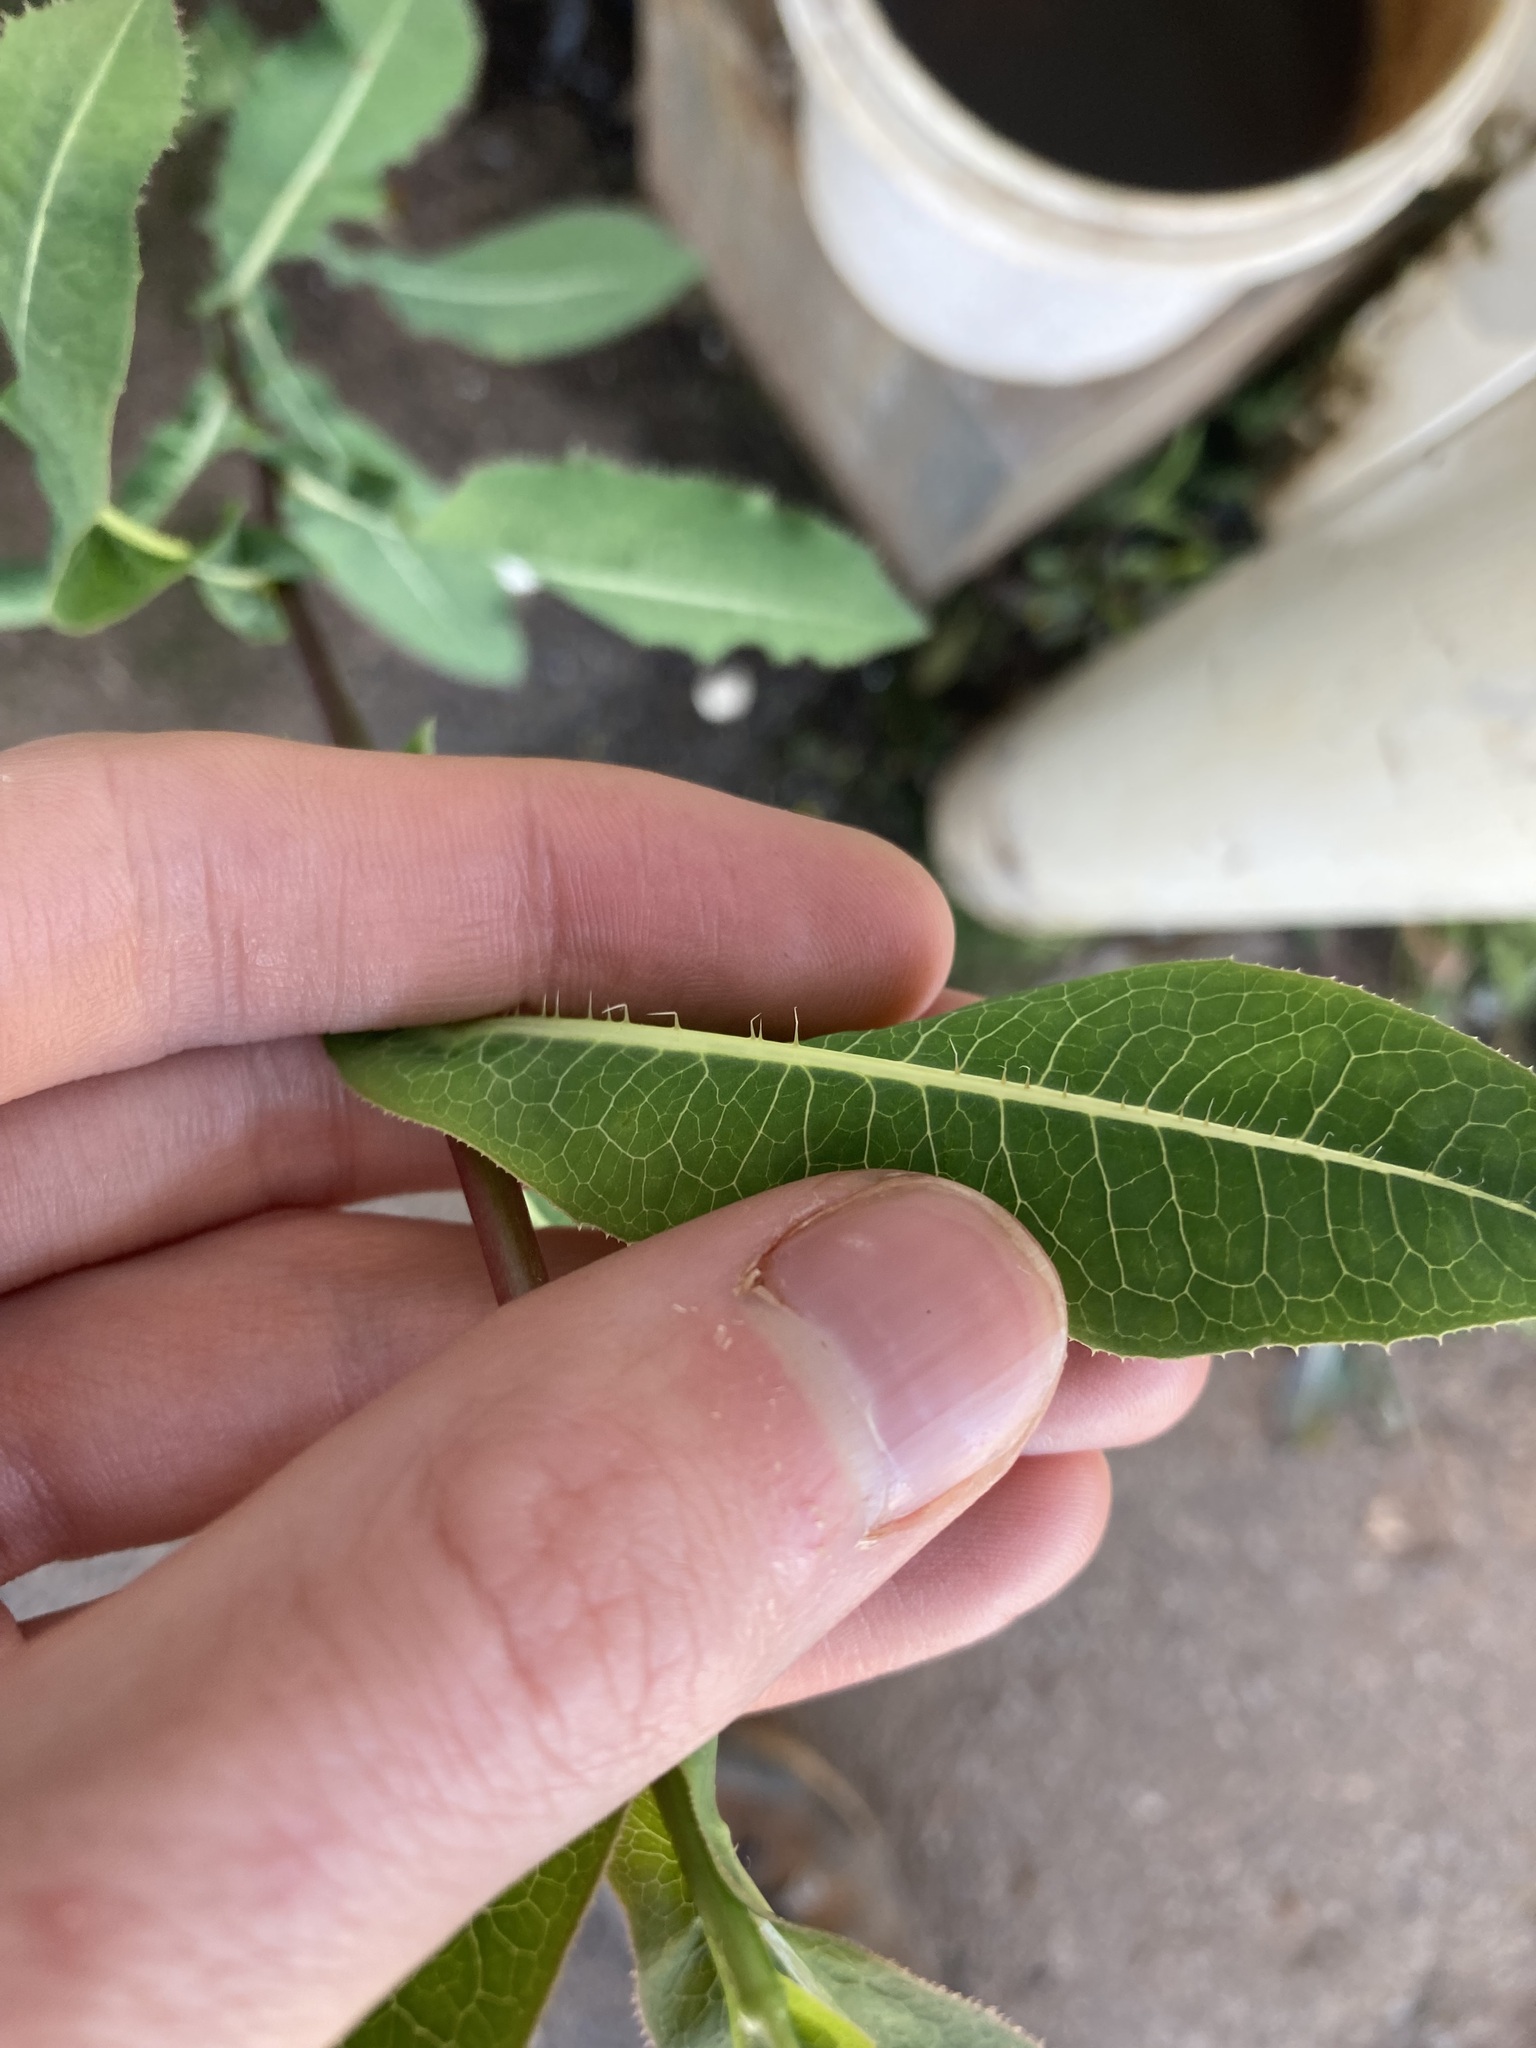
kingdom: Plantae
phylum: Tracheophyta
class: Magnoliopsida
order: Asterales
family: Asteraceae
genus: Lactuca
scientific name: Lactuca serriola
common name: Prickly lettuce
